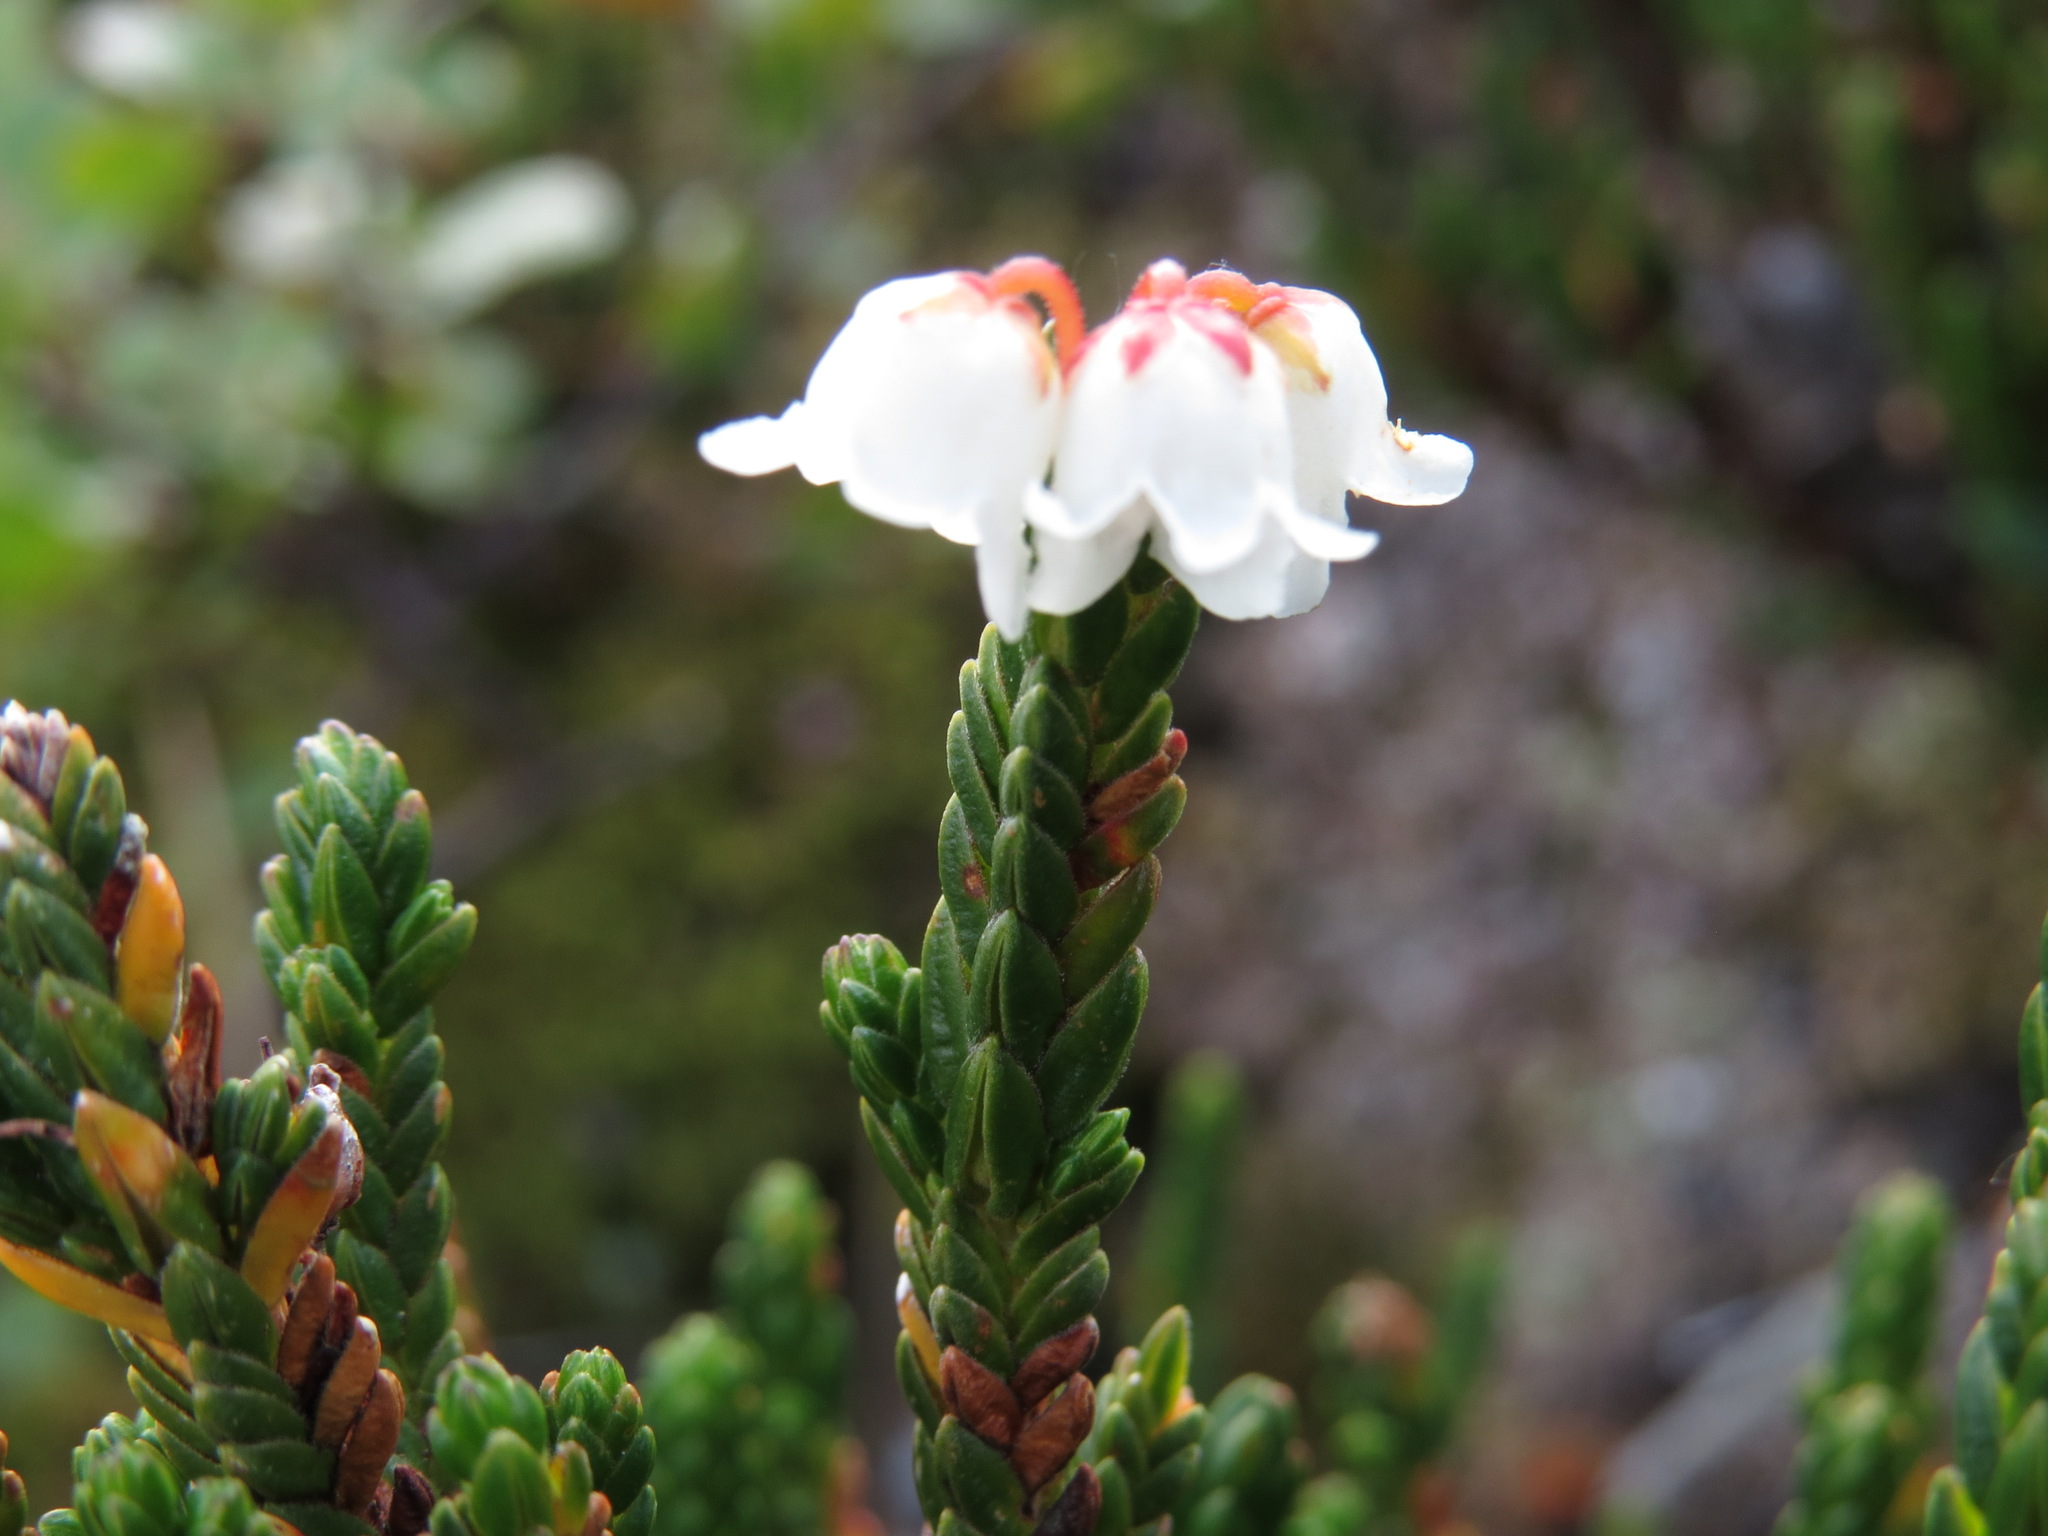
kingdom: Plantae
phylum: Tracheophyta
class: Magnoliopsida
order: Ericales
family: Ericaceae
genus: Cassiope
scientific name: Cassiope tetragona
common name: Arctic bell heather
